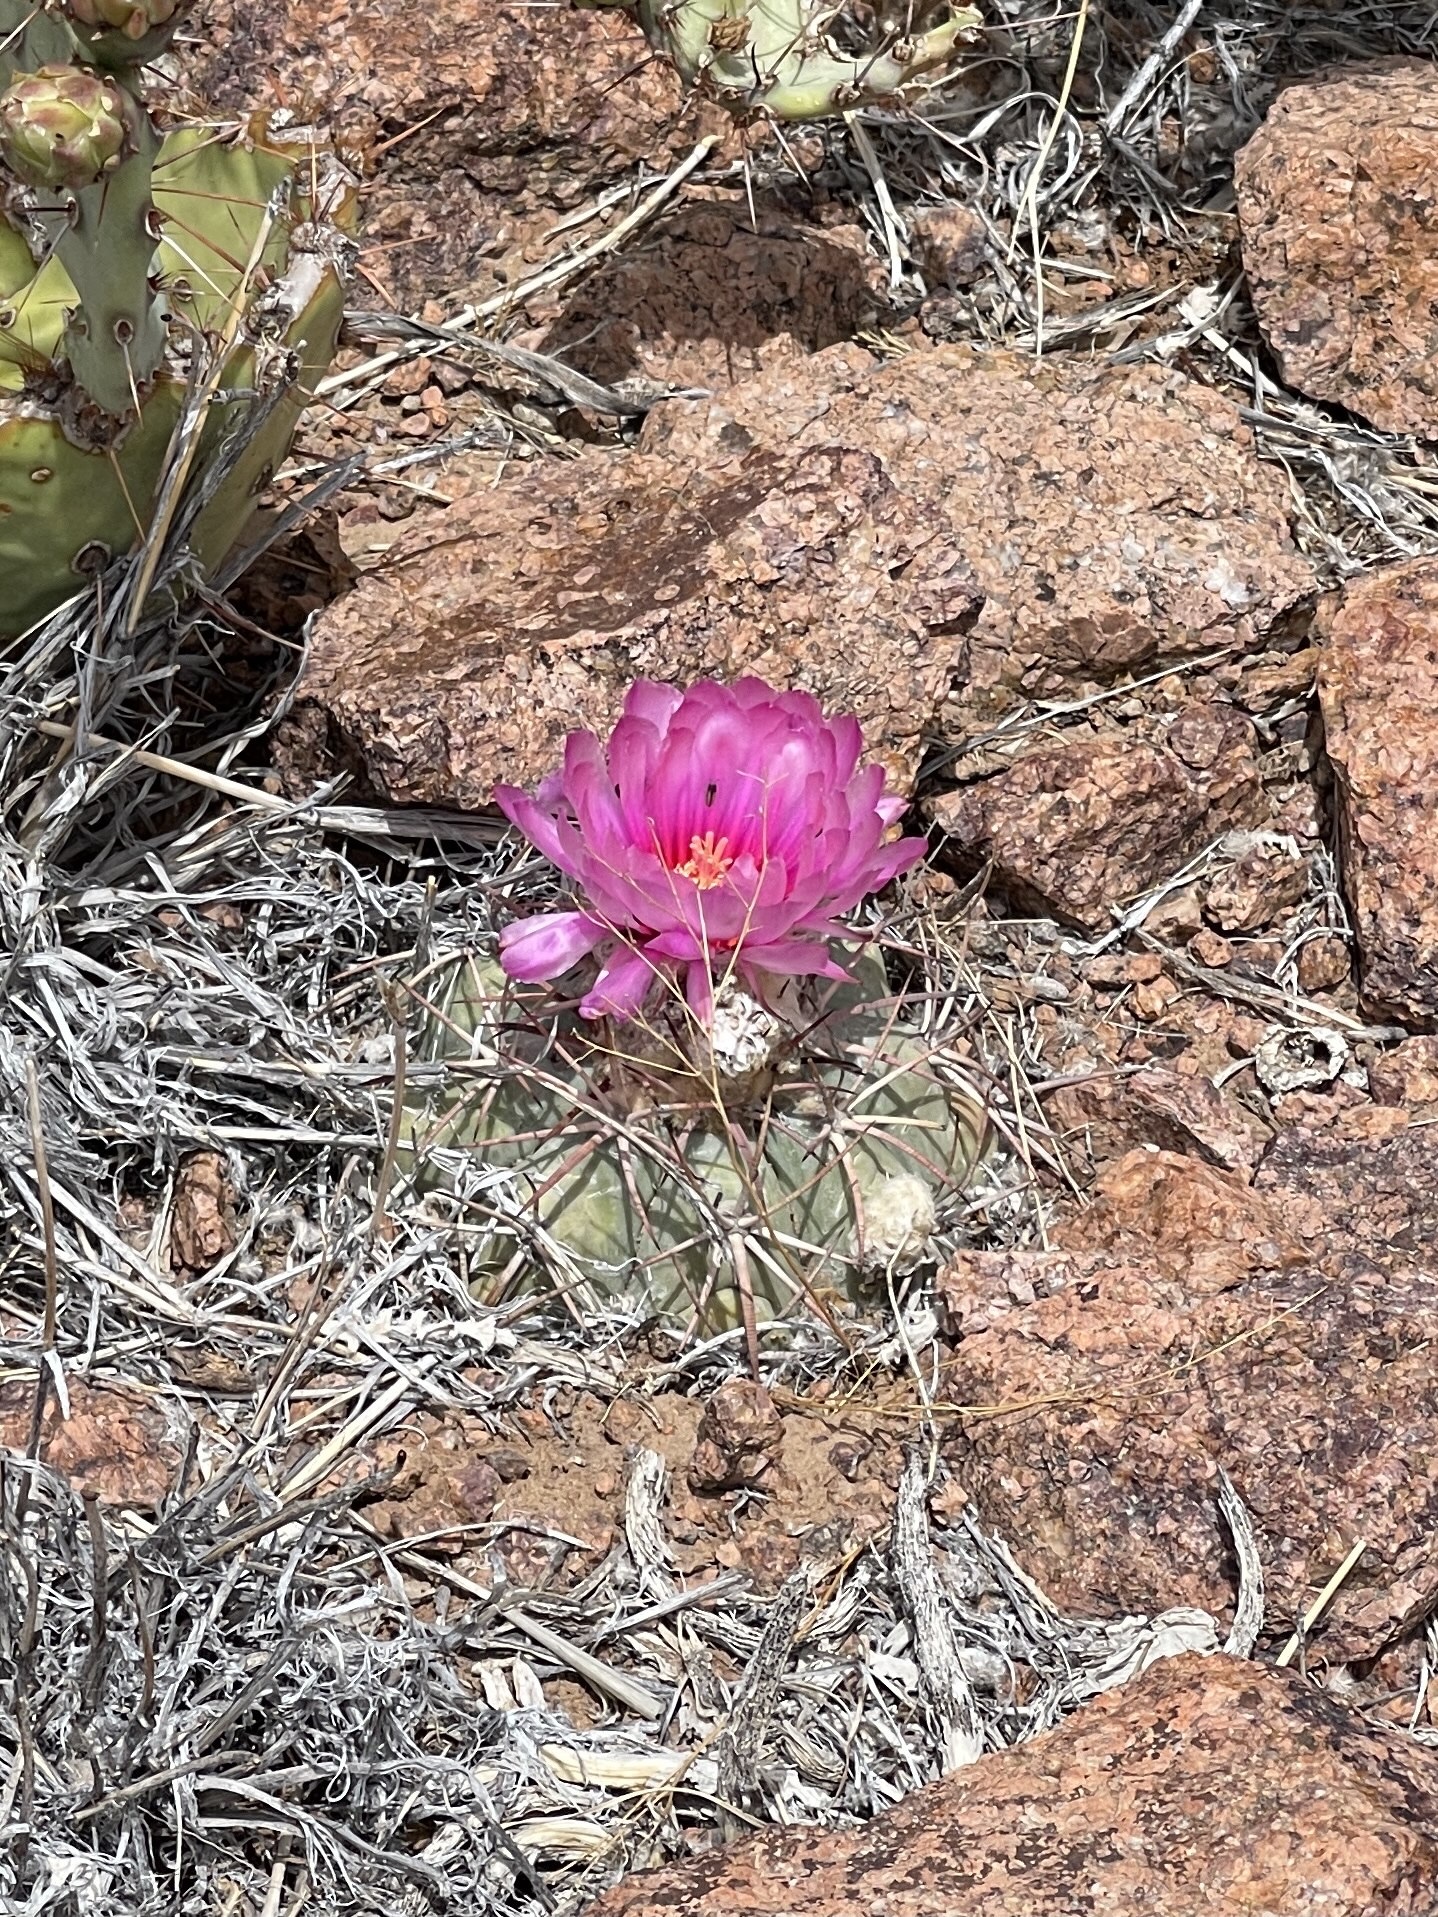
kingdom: Plantae
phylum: Tracheophyta
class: Magnoliopsida
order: Caryophyllales
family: Cactaceae
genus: Echinocactus
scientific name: Echinocactus horizonthalonius
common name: Devilshead
